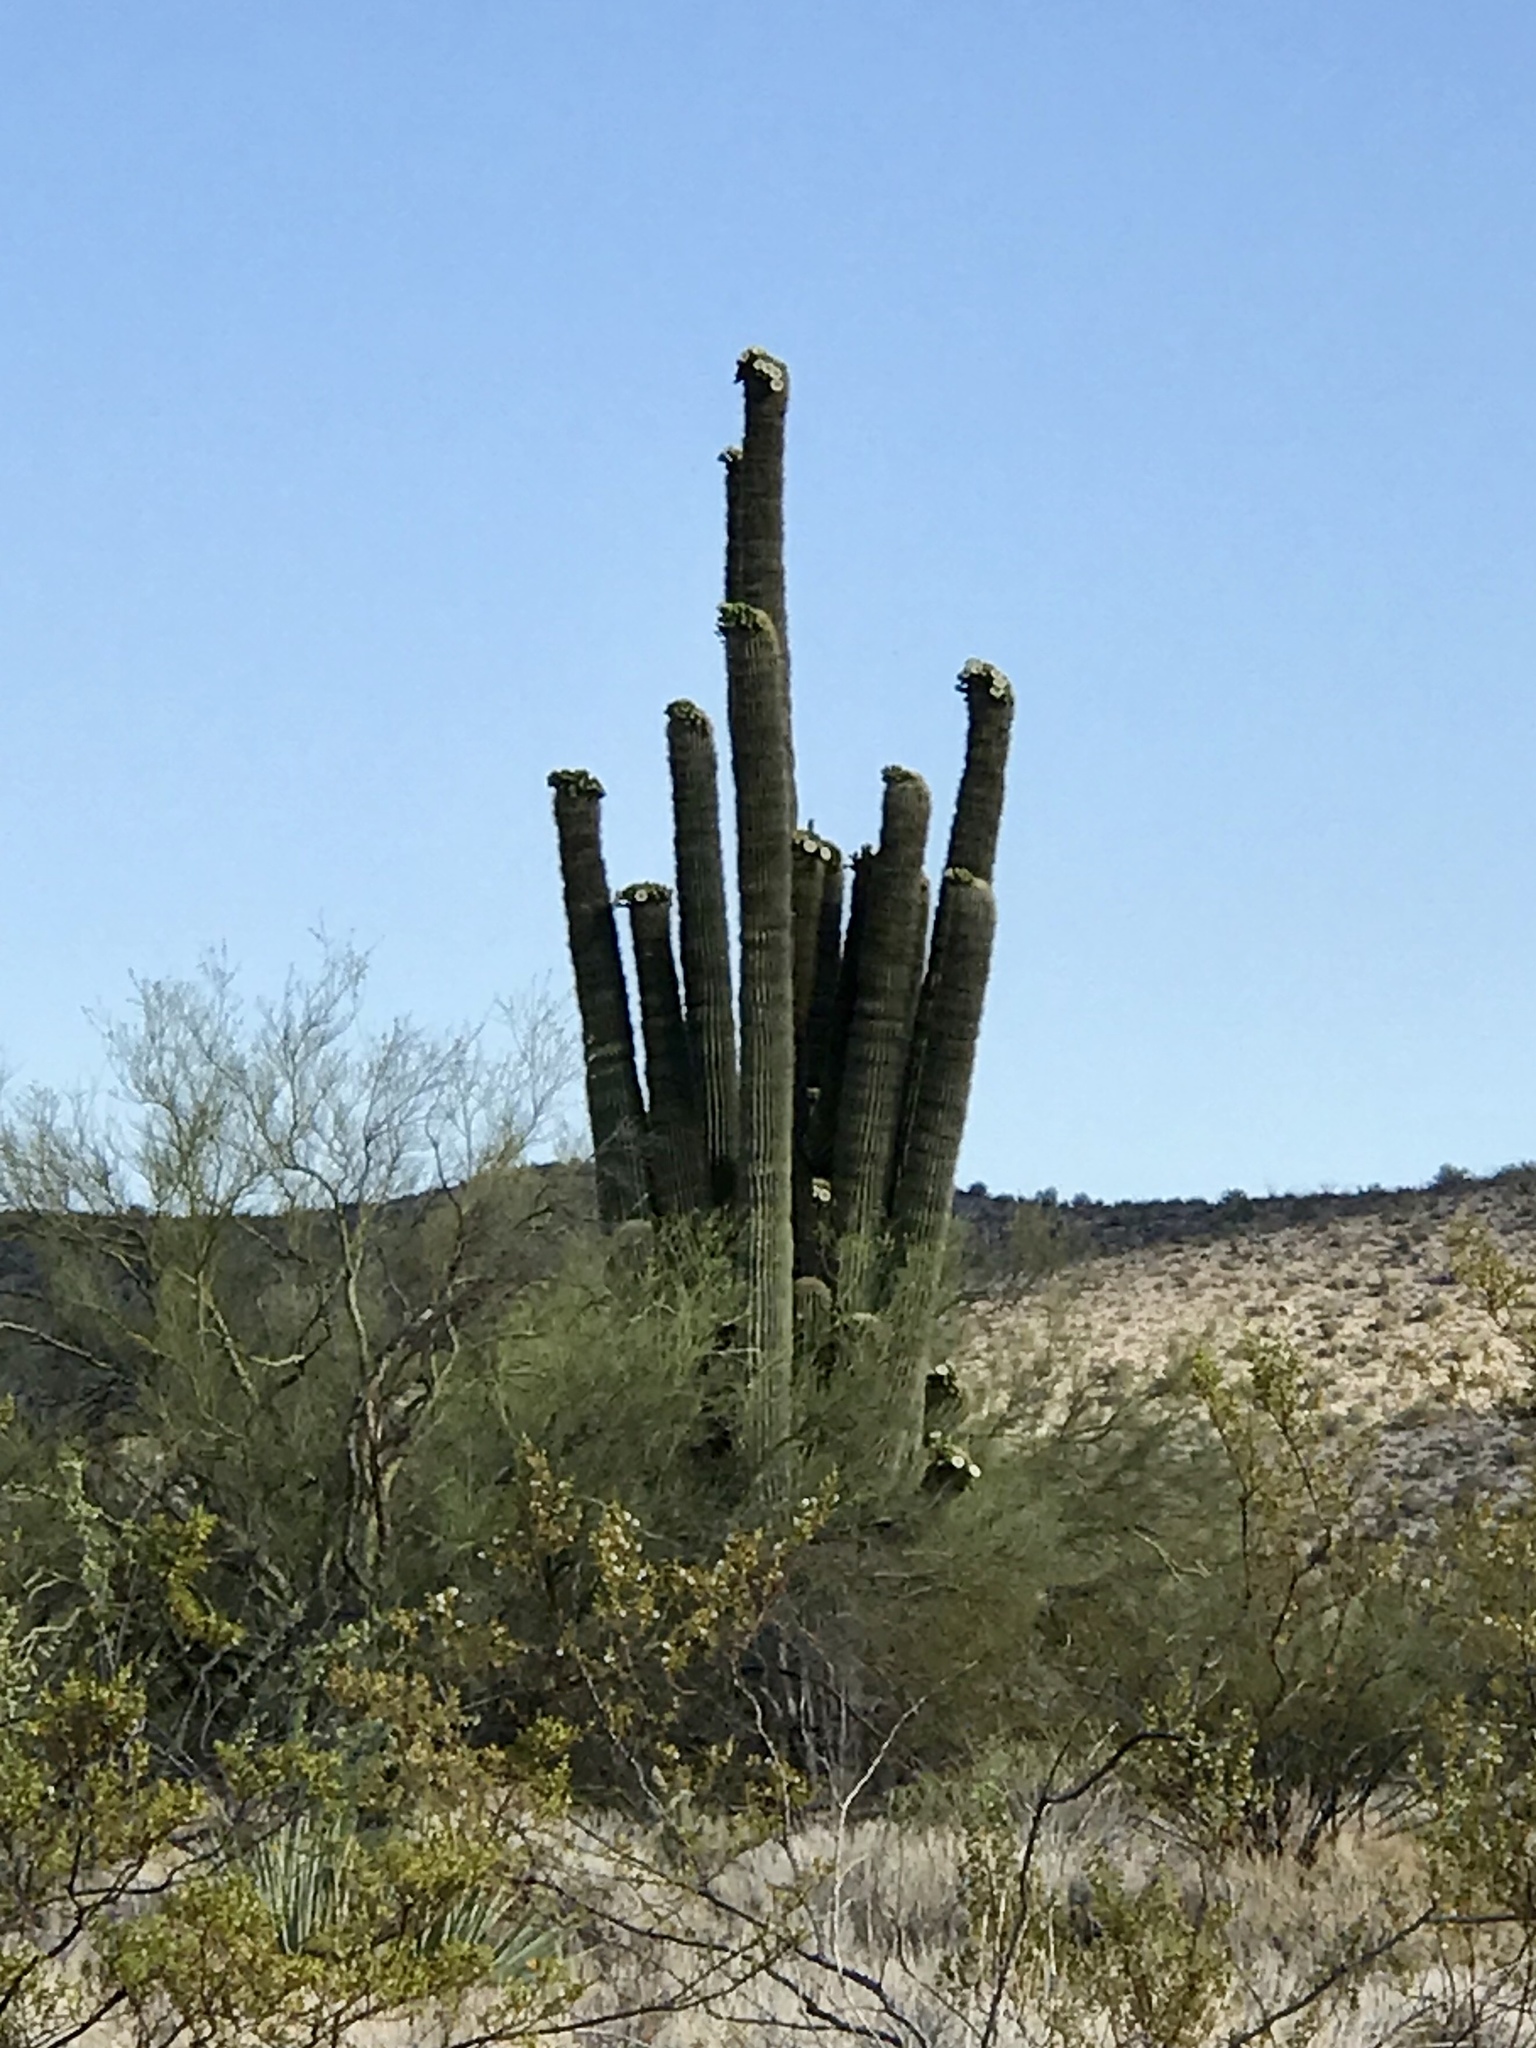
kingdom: Plantae
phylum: Tracheophyta
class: Magnoliopsida
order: Caryophyllales
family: Cactaceae
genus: Carnegiea
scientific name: Carnegiea gigantea
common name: Saguaro
